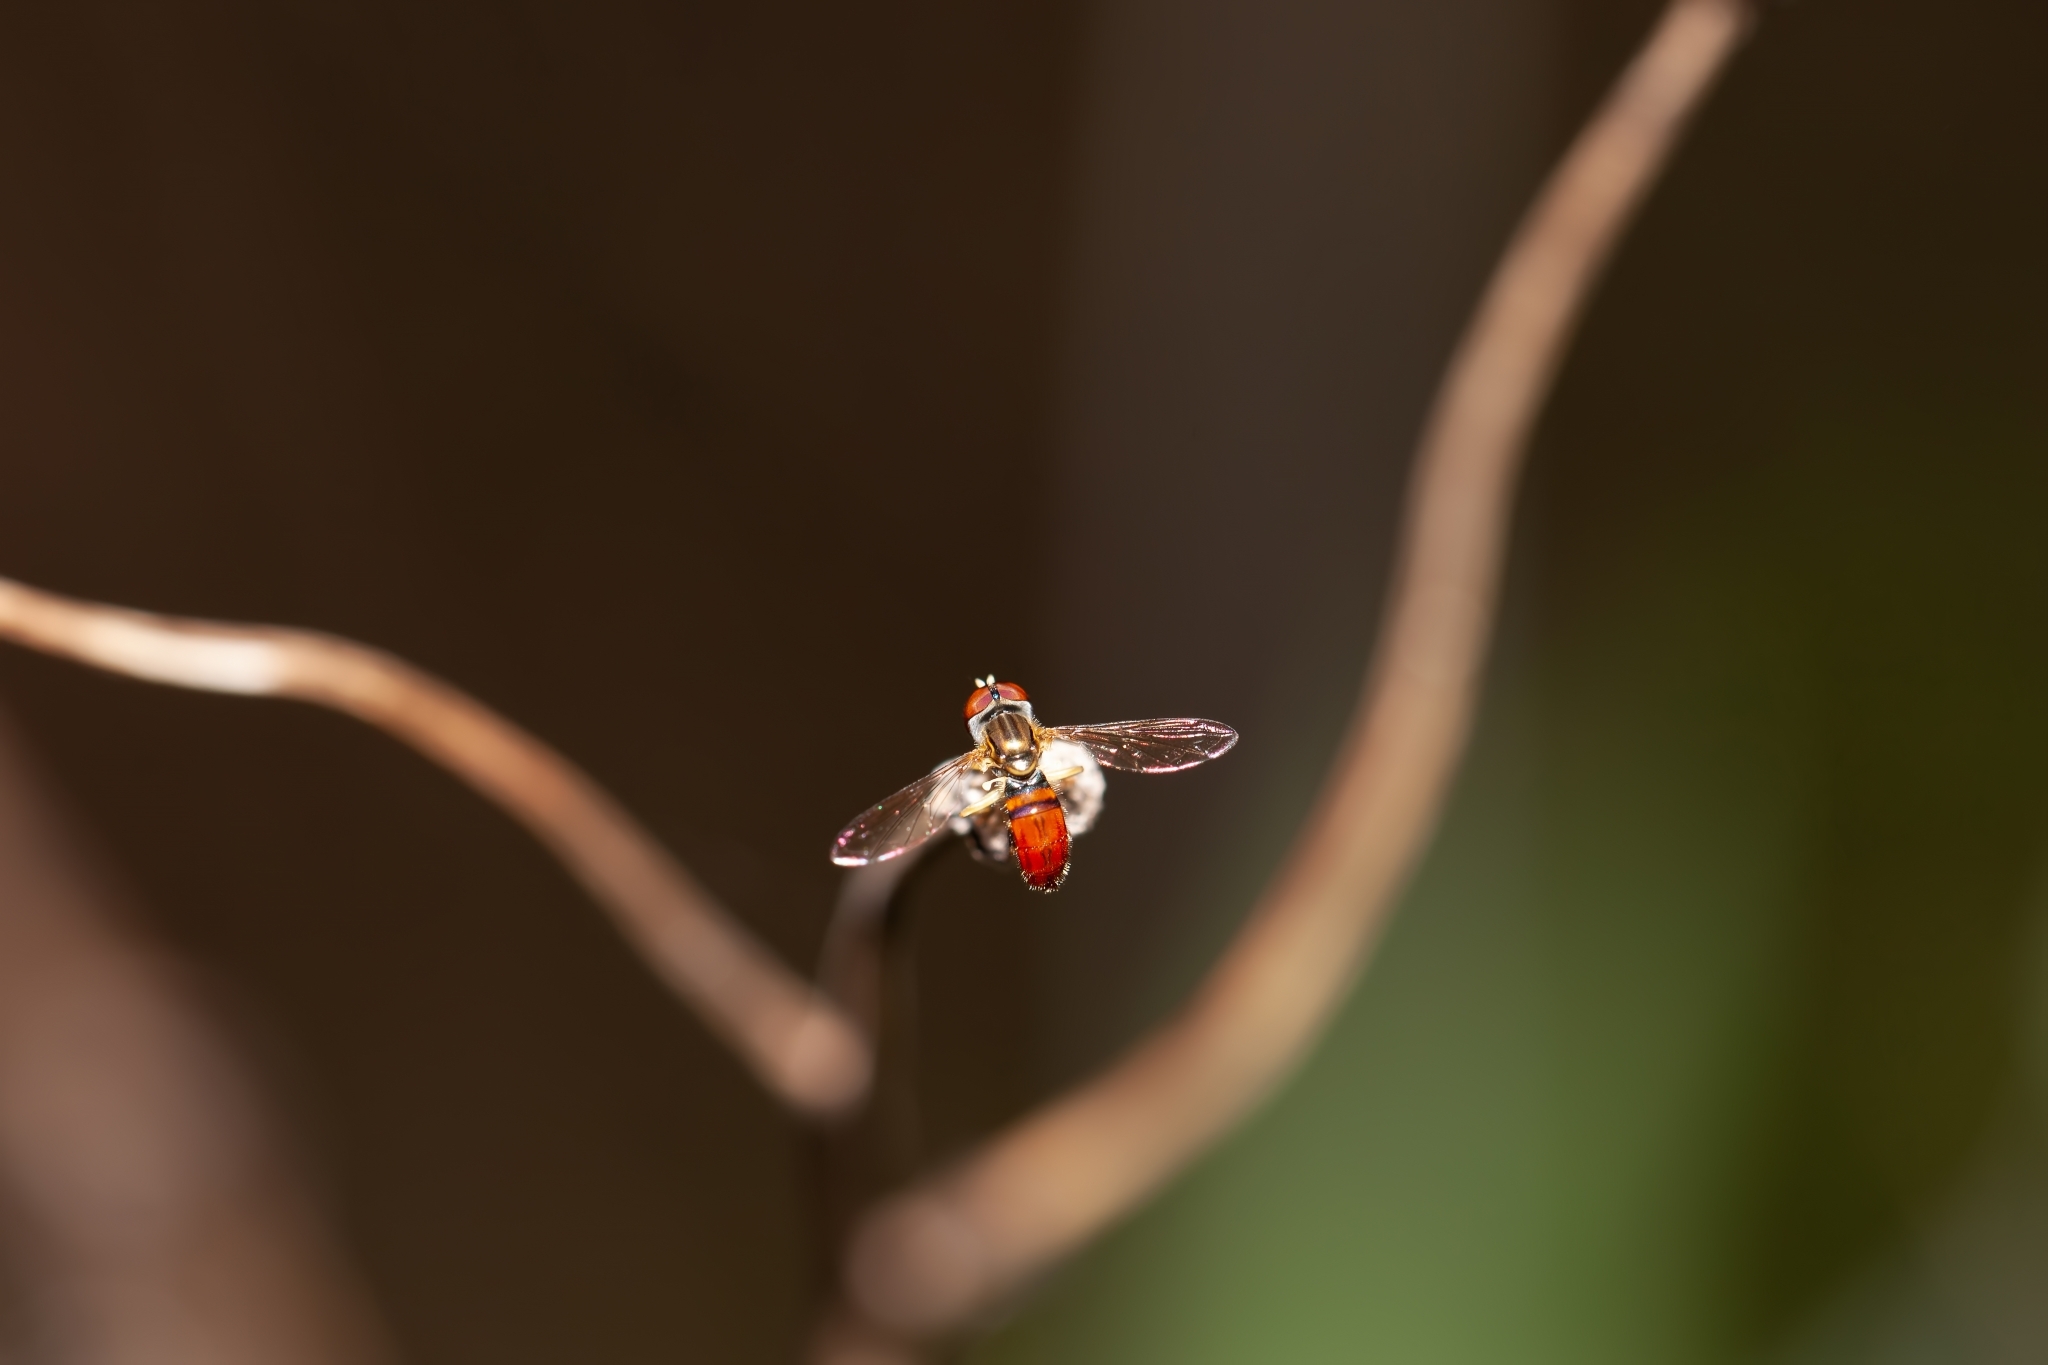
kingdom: Animalia
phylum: Arthropoda
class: Insecta
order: Diptera
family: Syrphidae
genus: Toxomerus
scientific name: Toxomerus boscii
